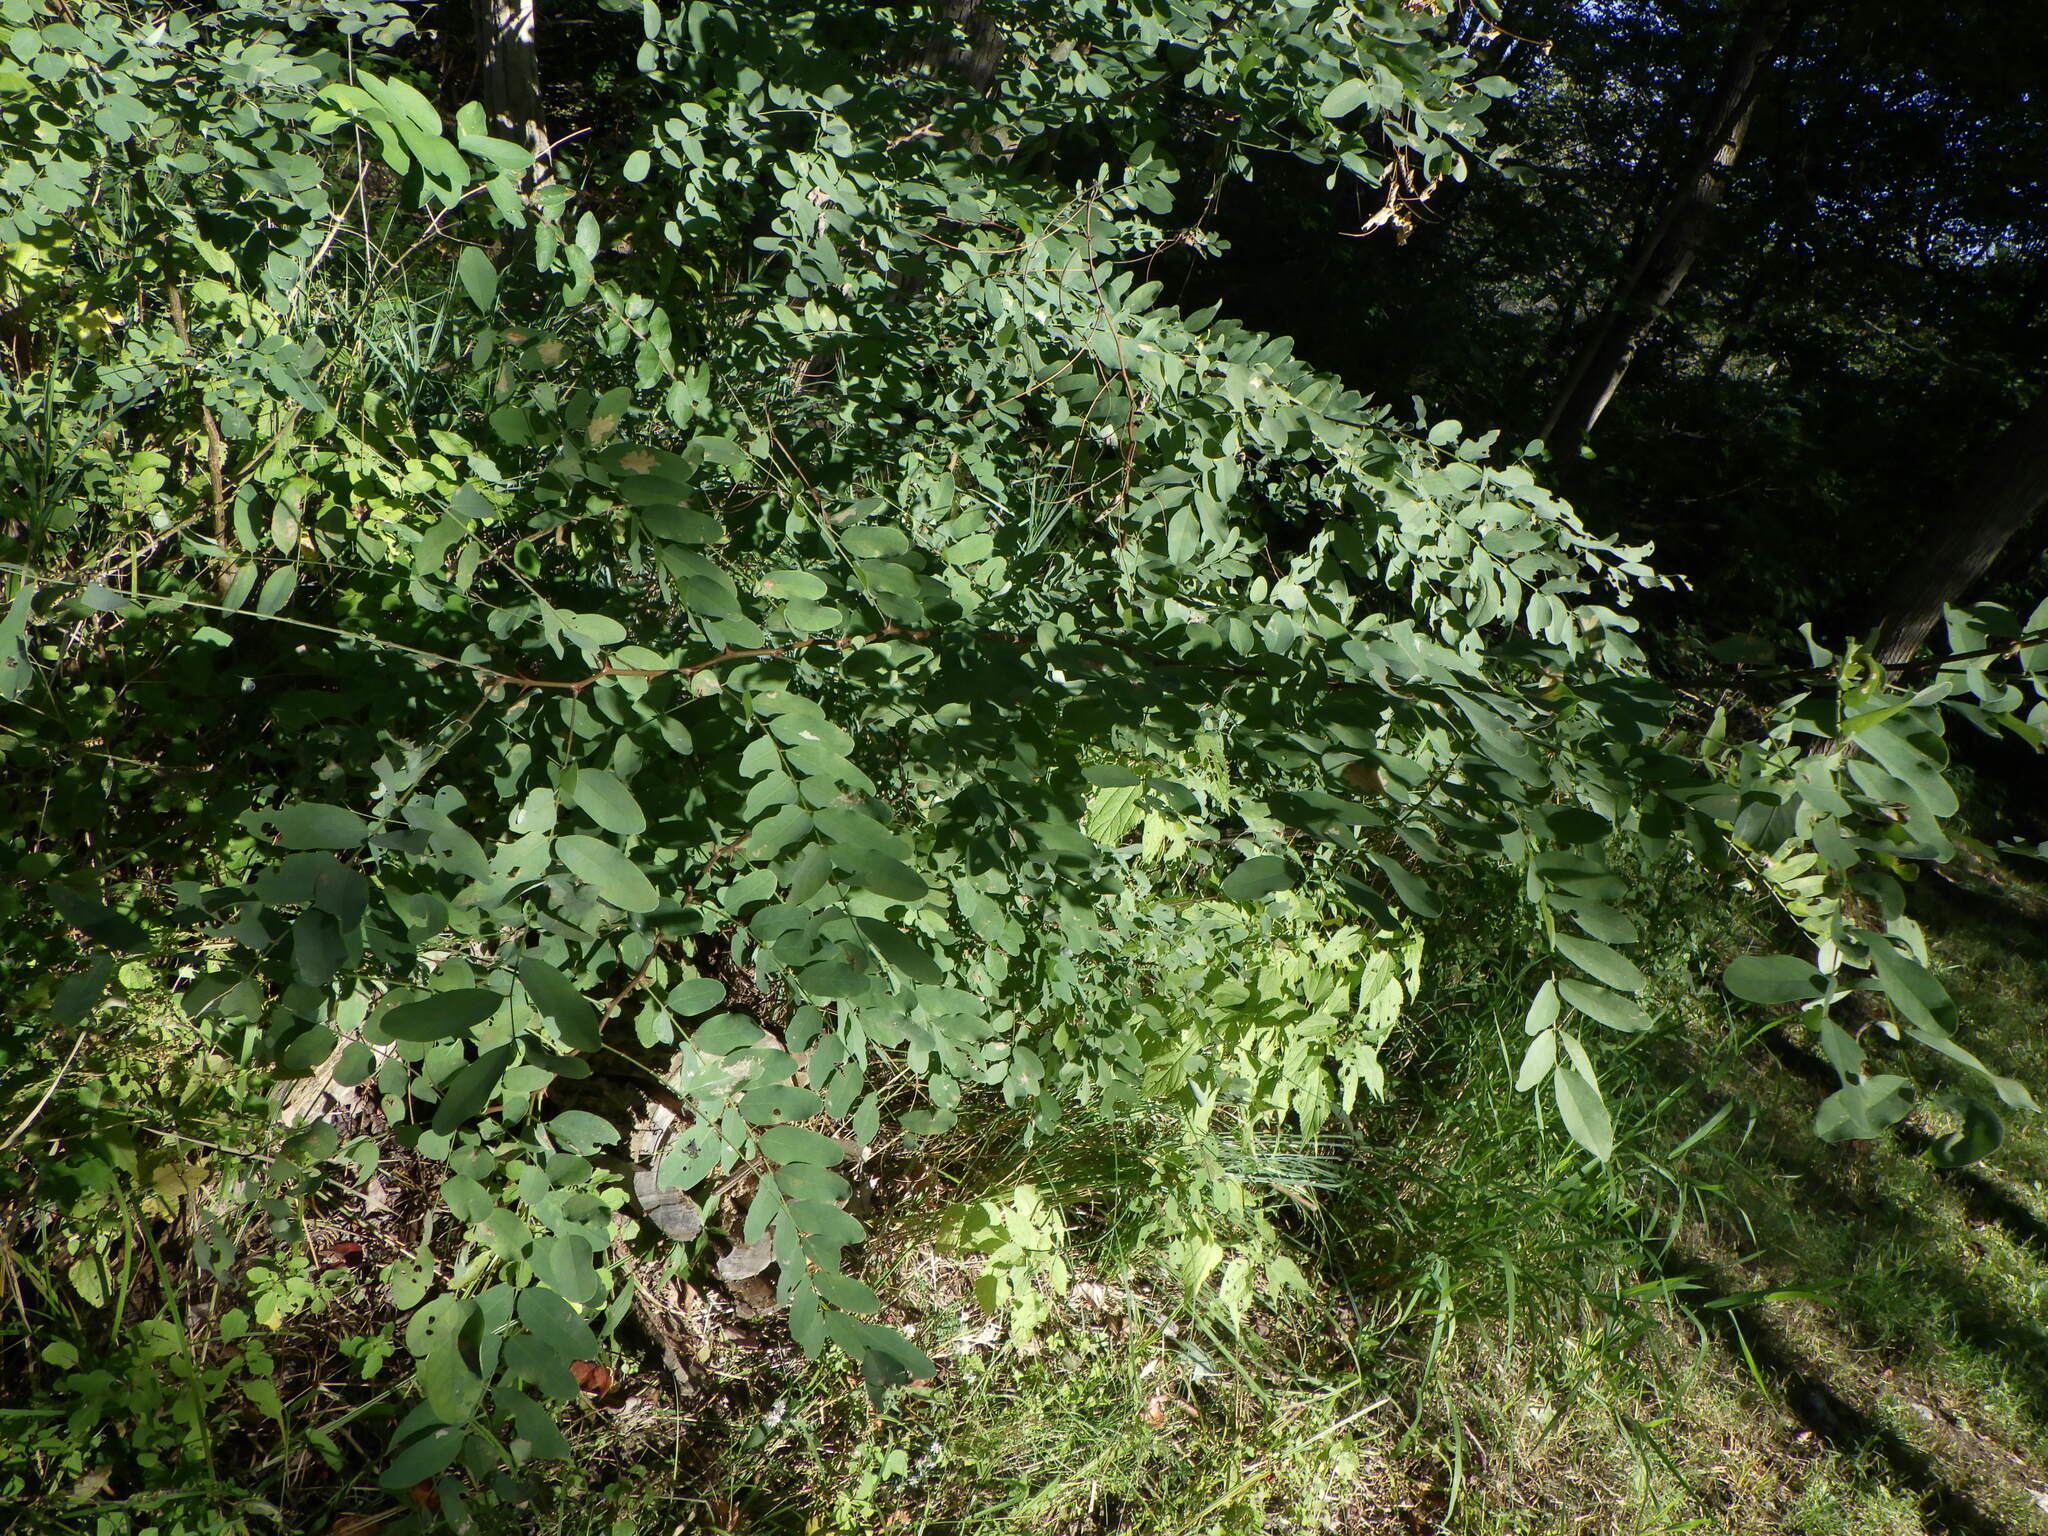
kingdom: Plantae
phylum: Tracheophyta
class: Magnoliopsida
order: Fabales
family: Fabaceae
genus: Robinia
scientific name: Robinia pseudoacacia
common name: Black locust
